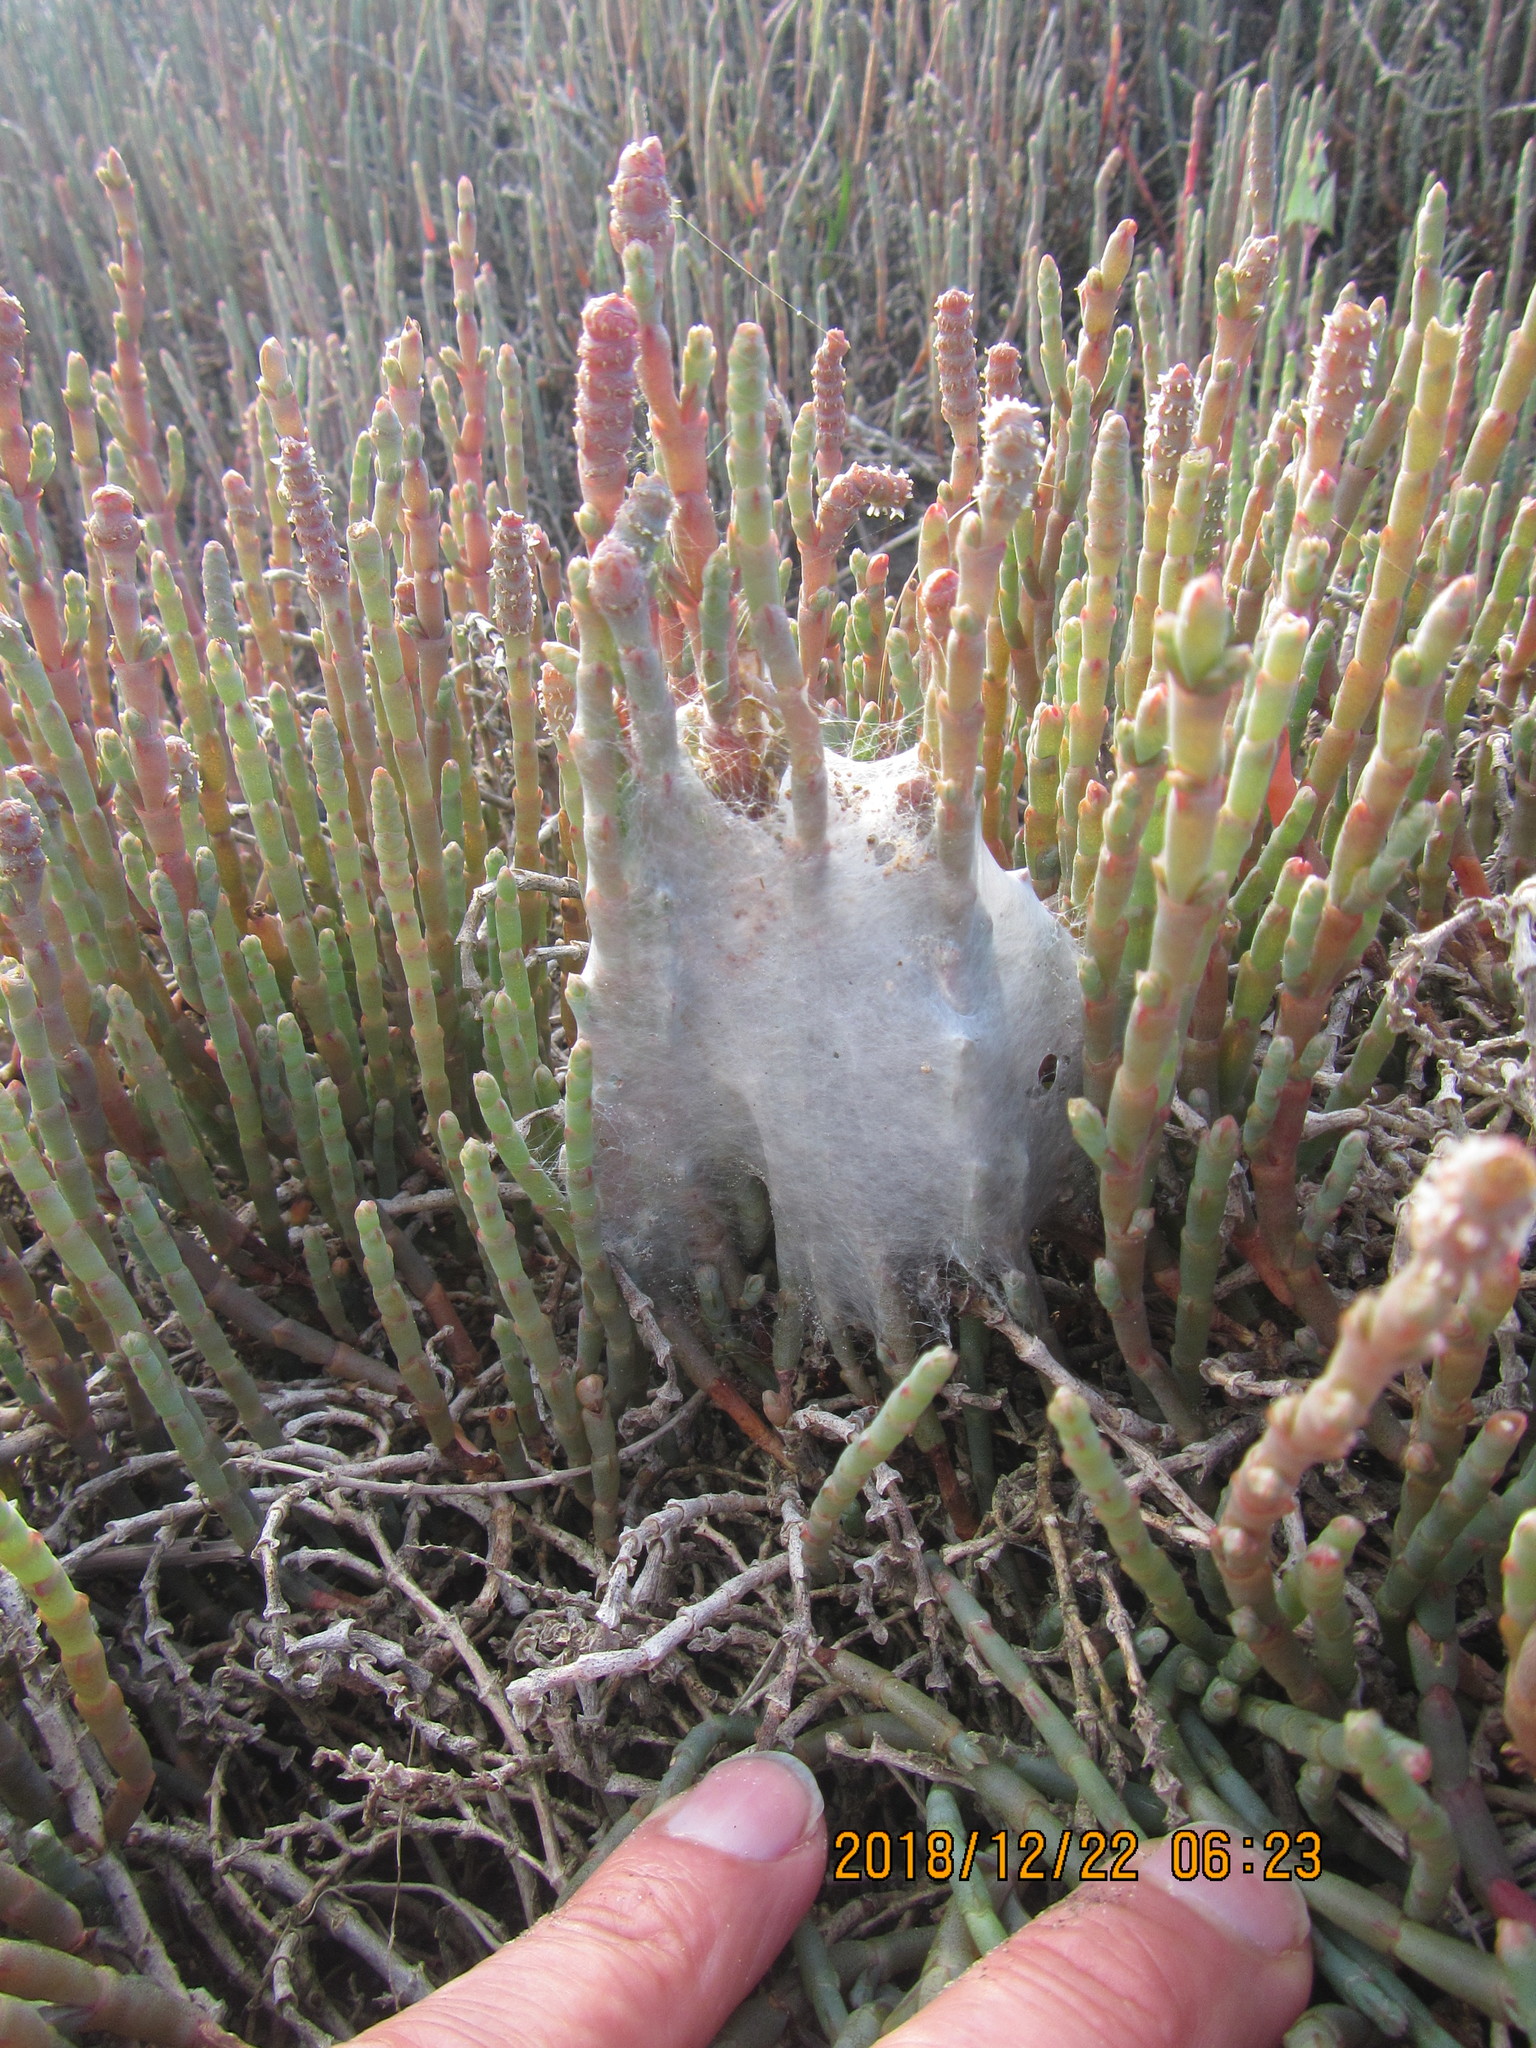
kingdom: Animalia
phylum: Arthropoda
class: Arachnida
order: Araneae
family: Pisauridae
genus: Dolomedes
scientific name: Dolomedes minor
